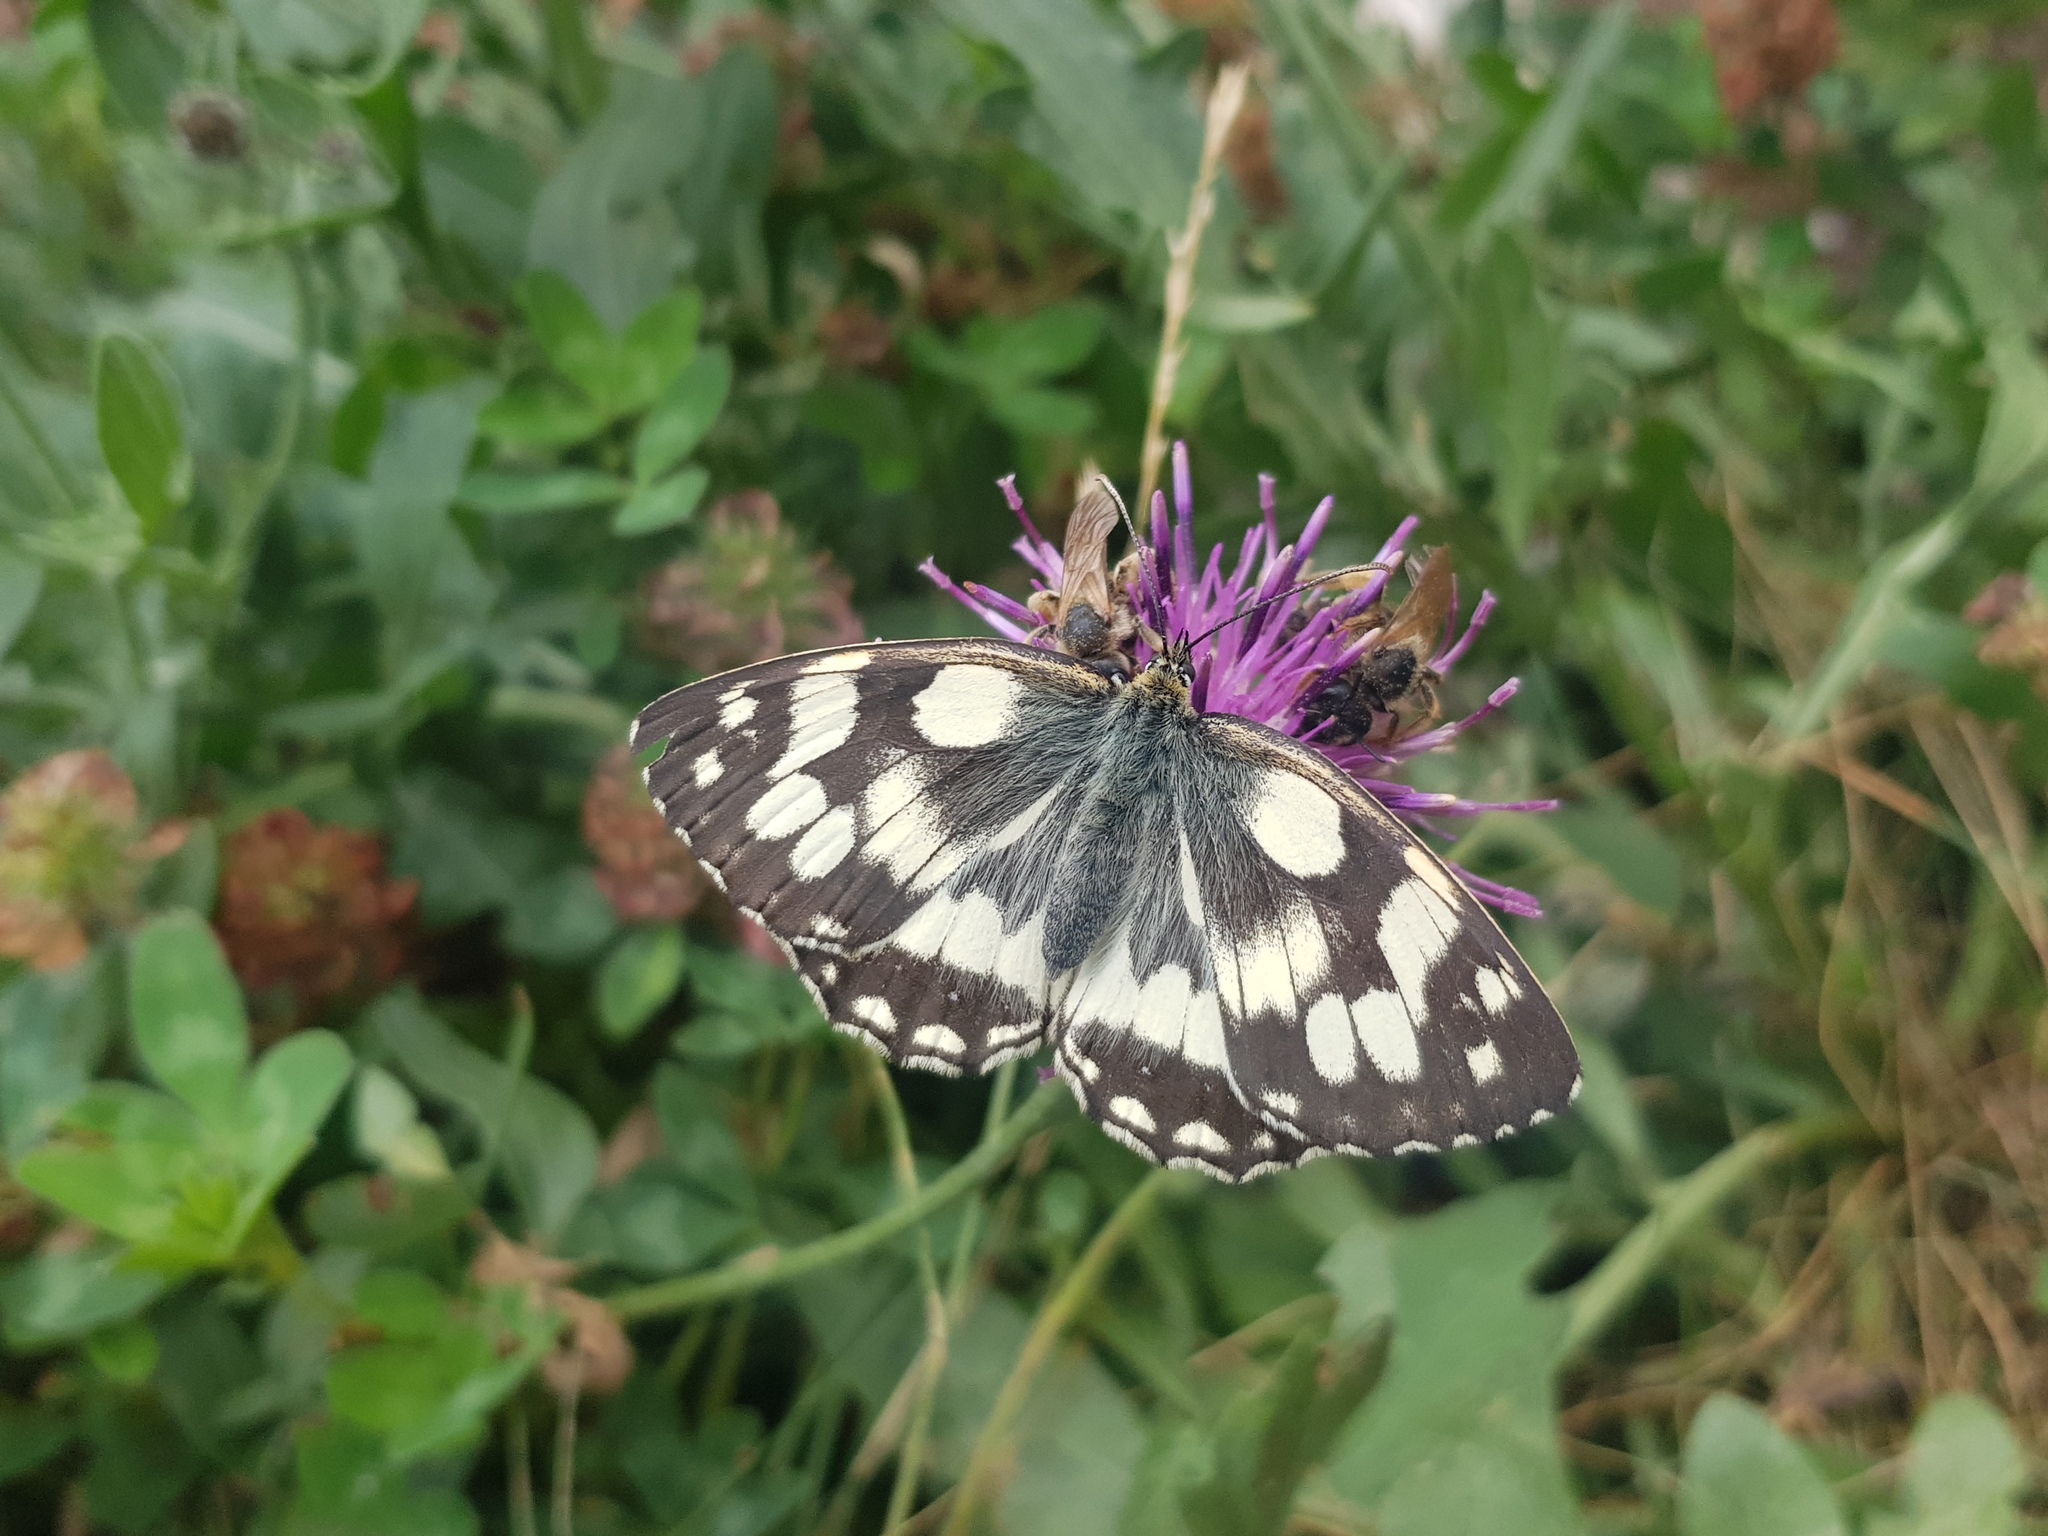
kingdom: Animalia
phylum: Arthropoda
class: Insecta
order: Lepidoptera
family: Nymphalidae
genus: Melanargia
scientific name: Melanargia galathea
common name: Marbled white
